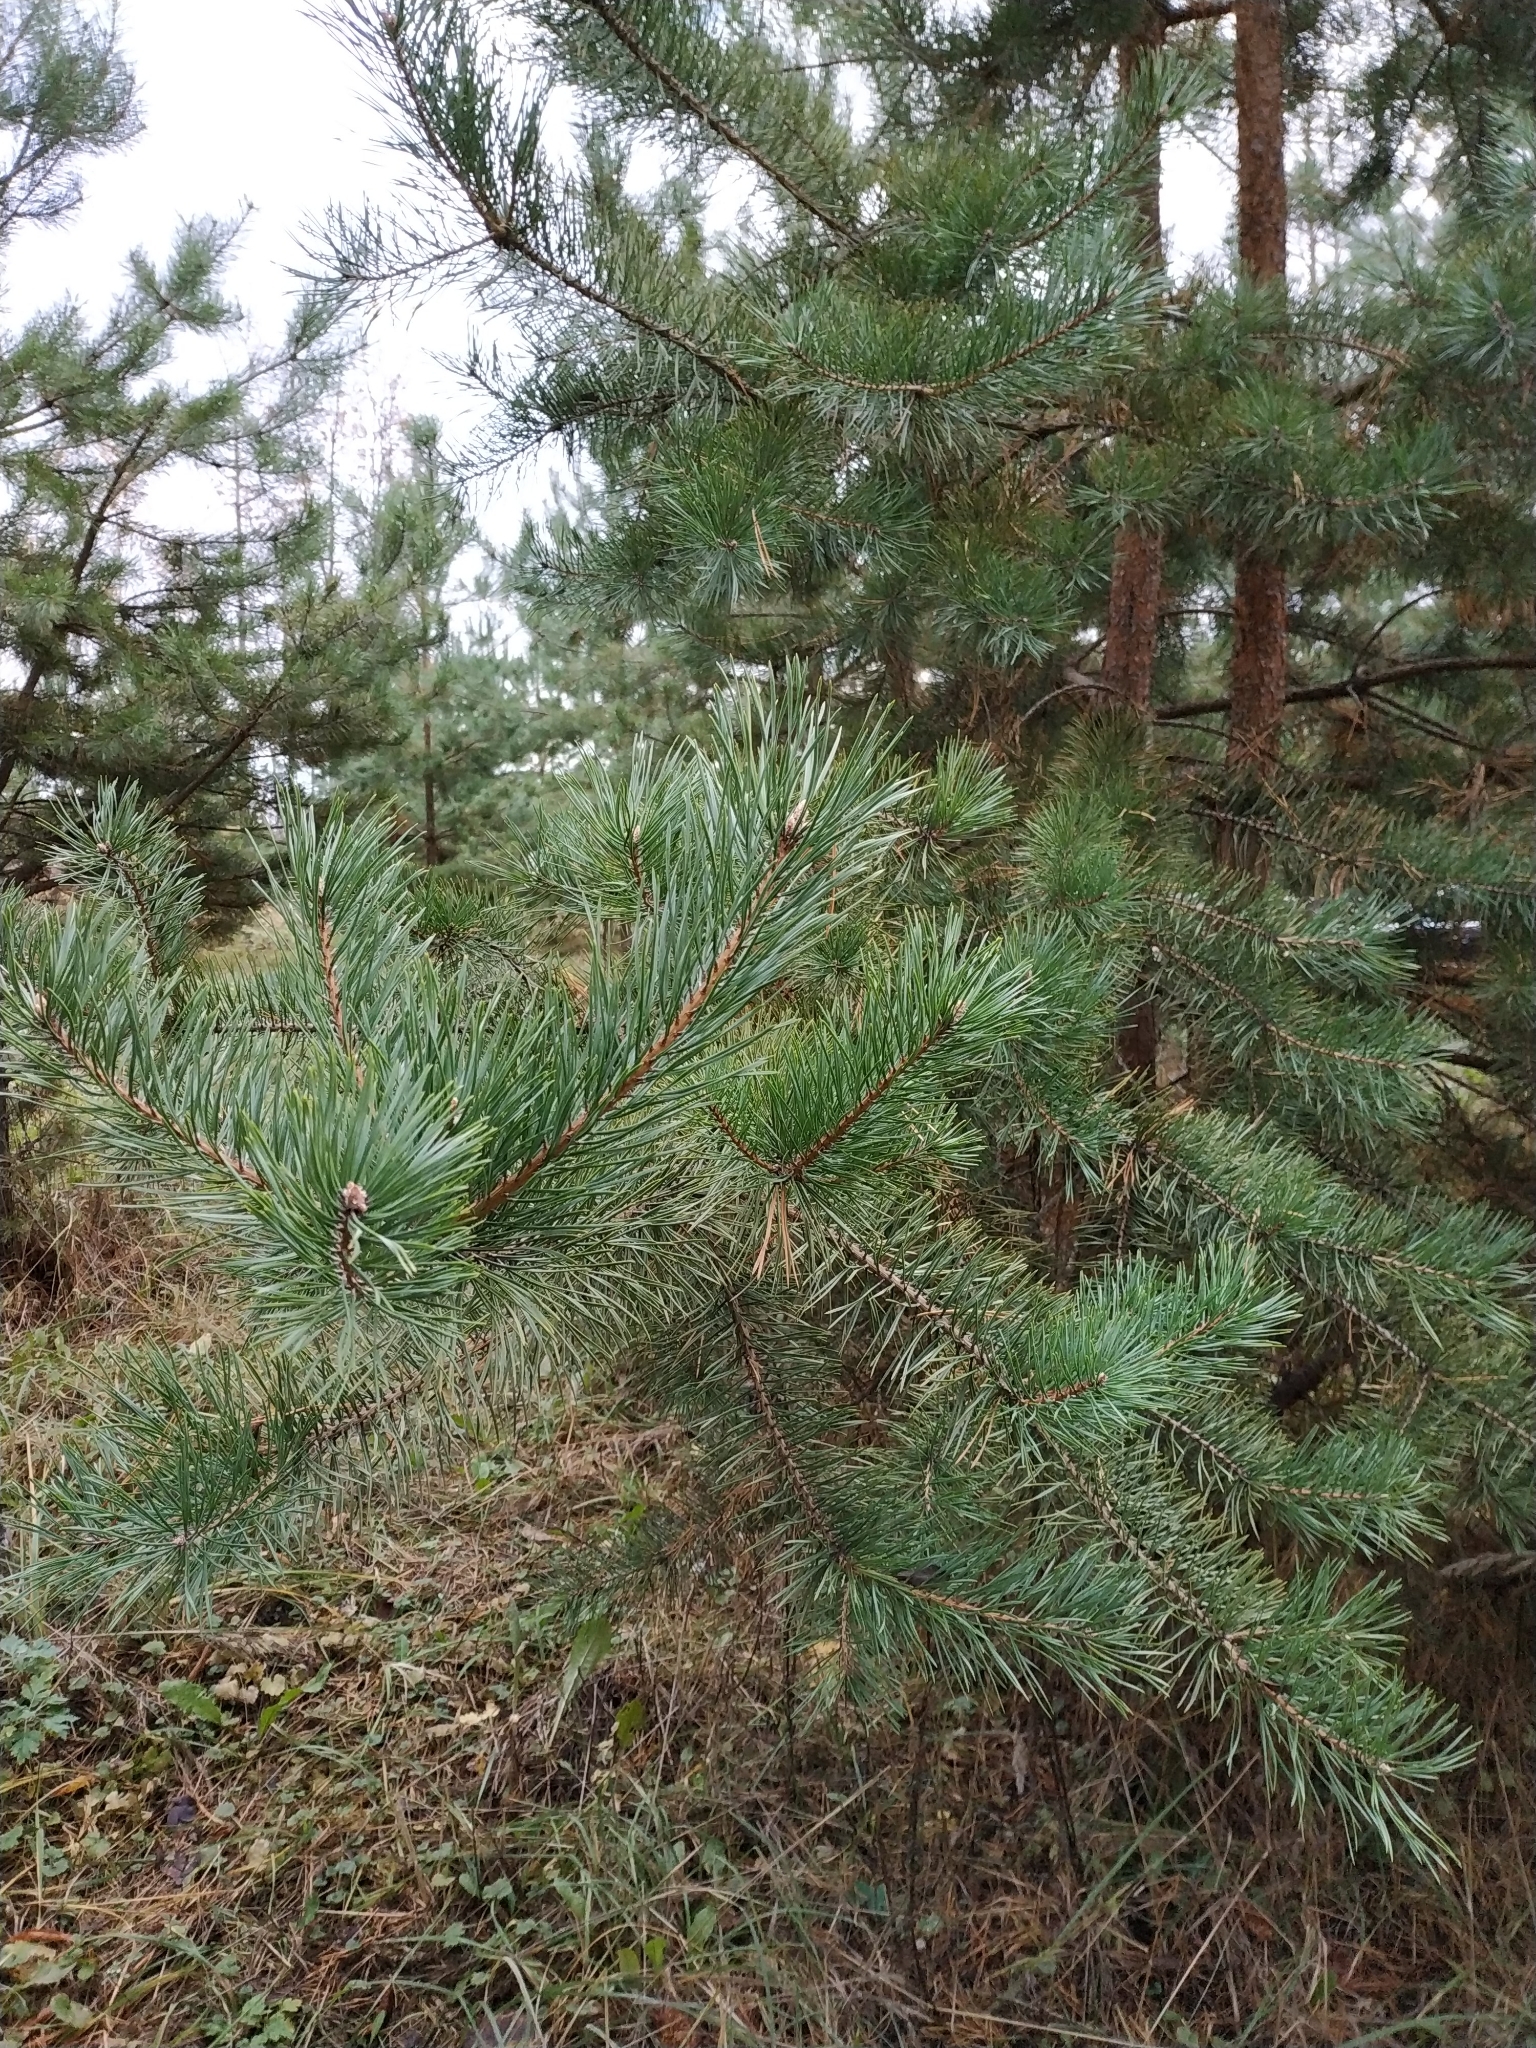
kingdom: Plantae
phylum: Tracheophyta
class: Pinopsida
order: Pinales
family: Pinaceae
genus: Pinus
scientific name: Pinus sylvestris
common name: Scots pine
